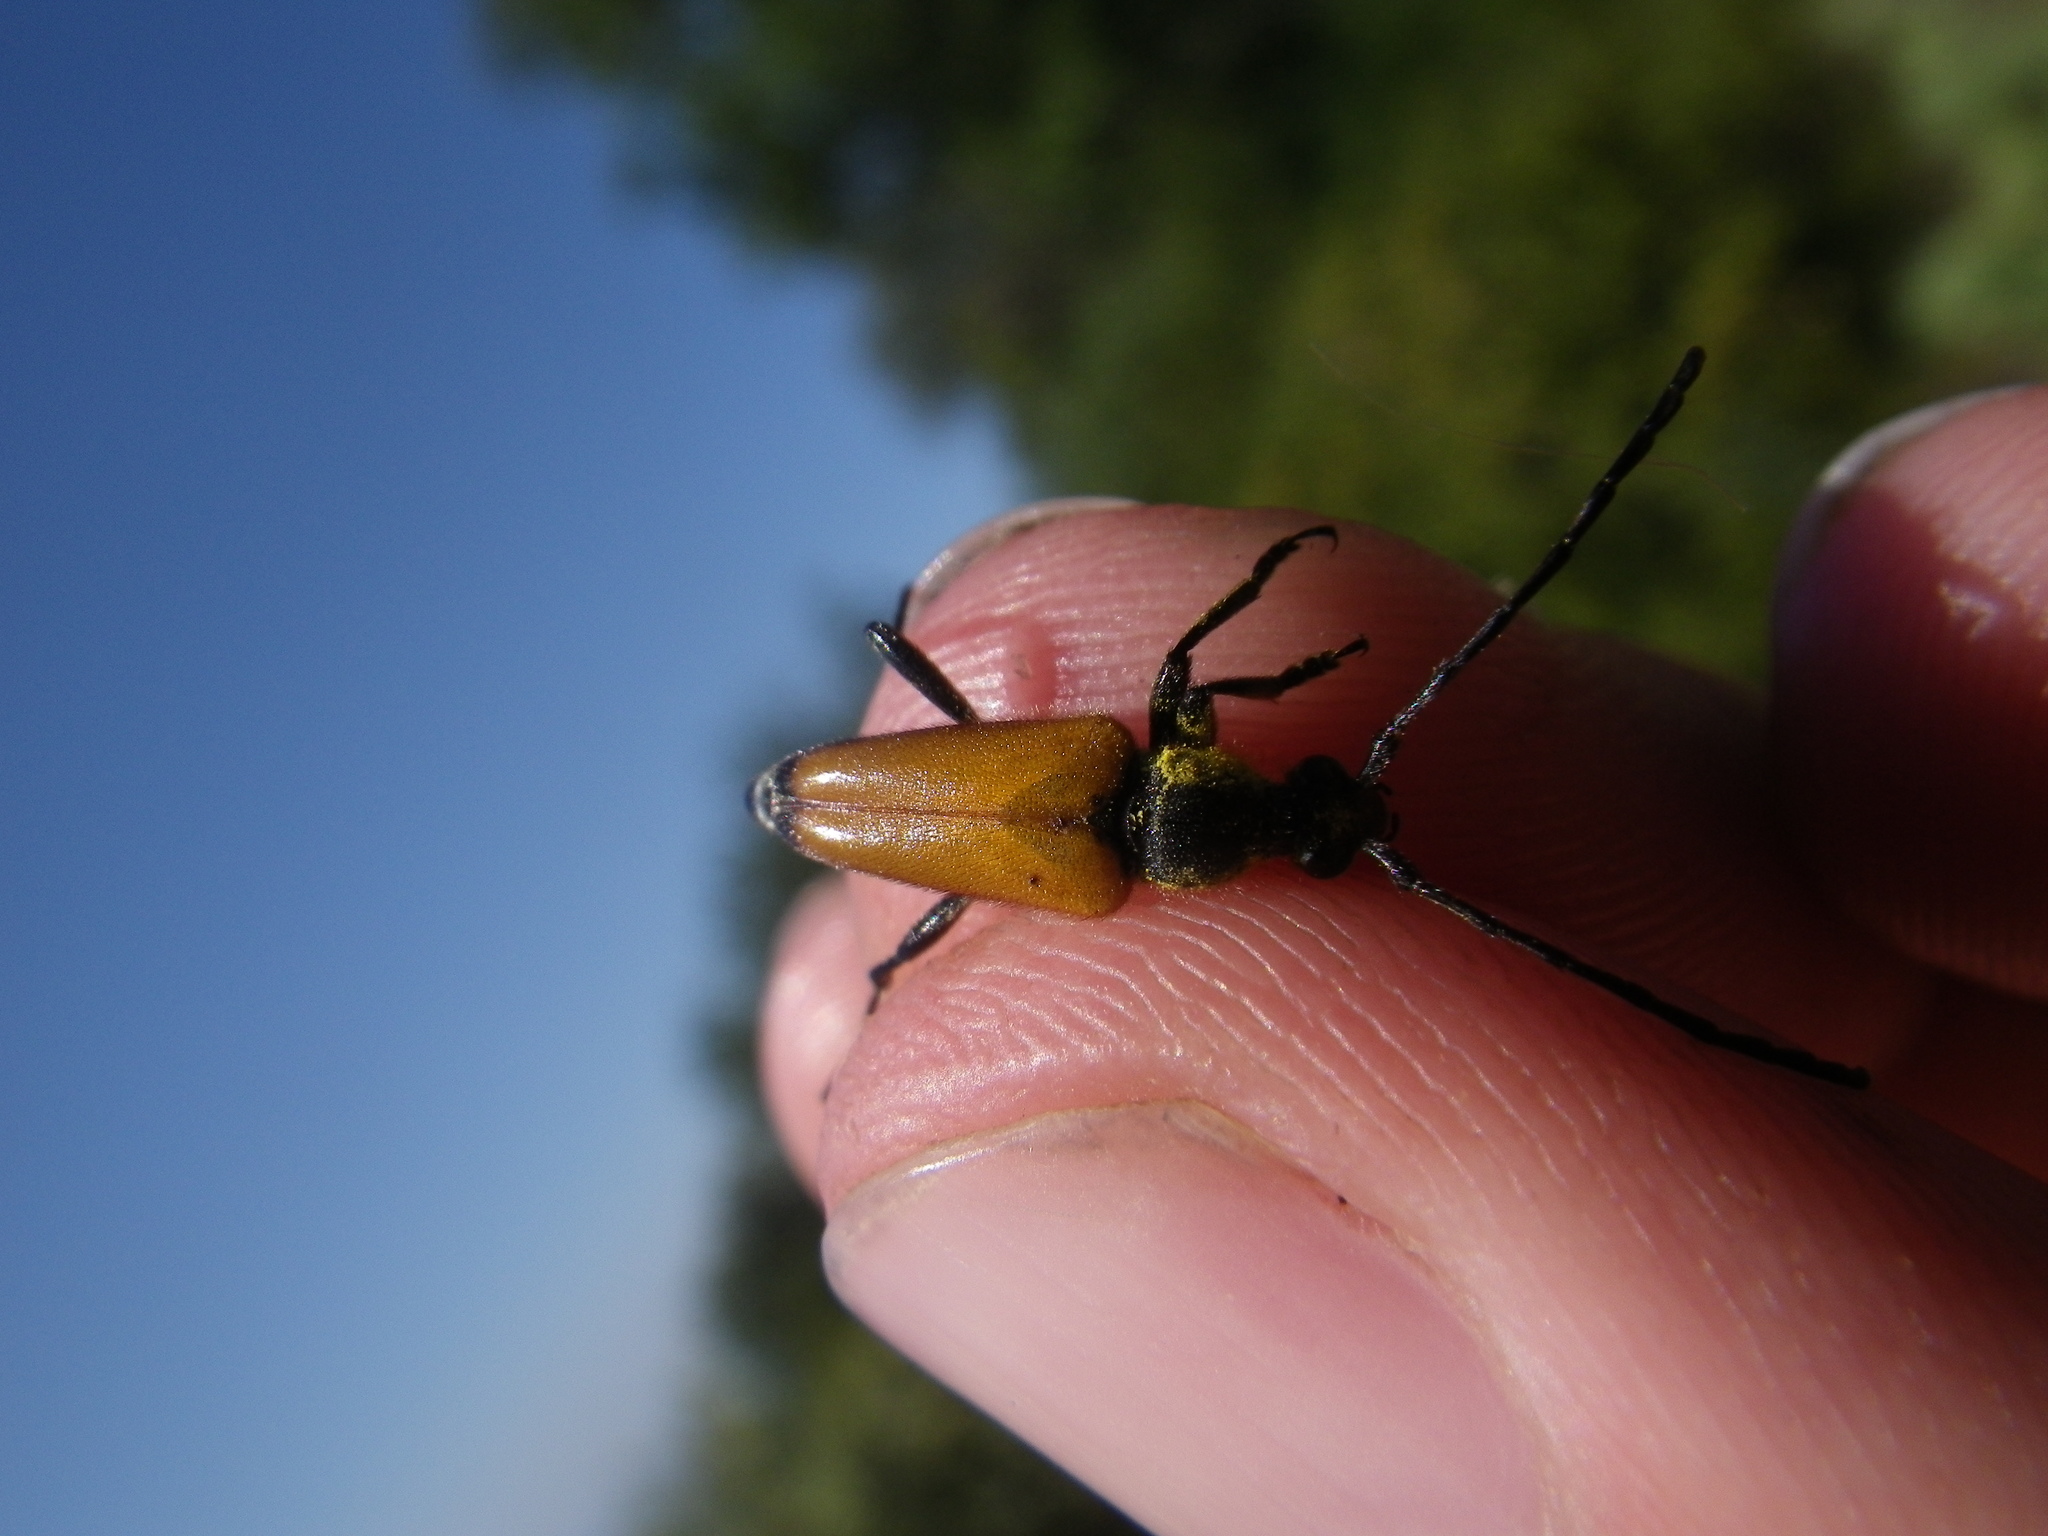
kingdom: Animalia
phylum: Arthropoda
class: Insecta
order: Coleoptera
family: Cerambycidae
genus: Paracorymbia
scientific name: Paracorymbia fulva
